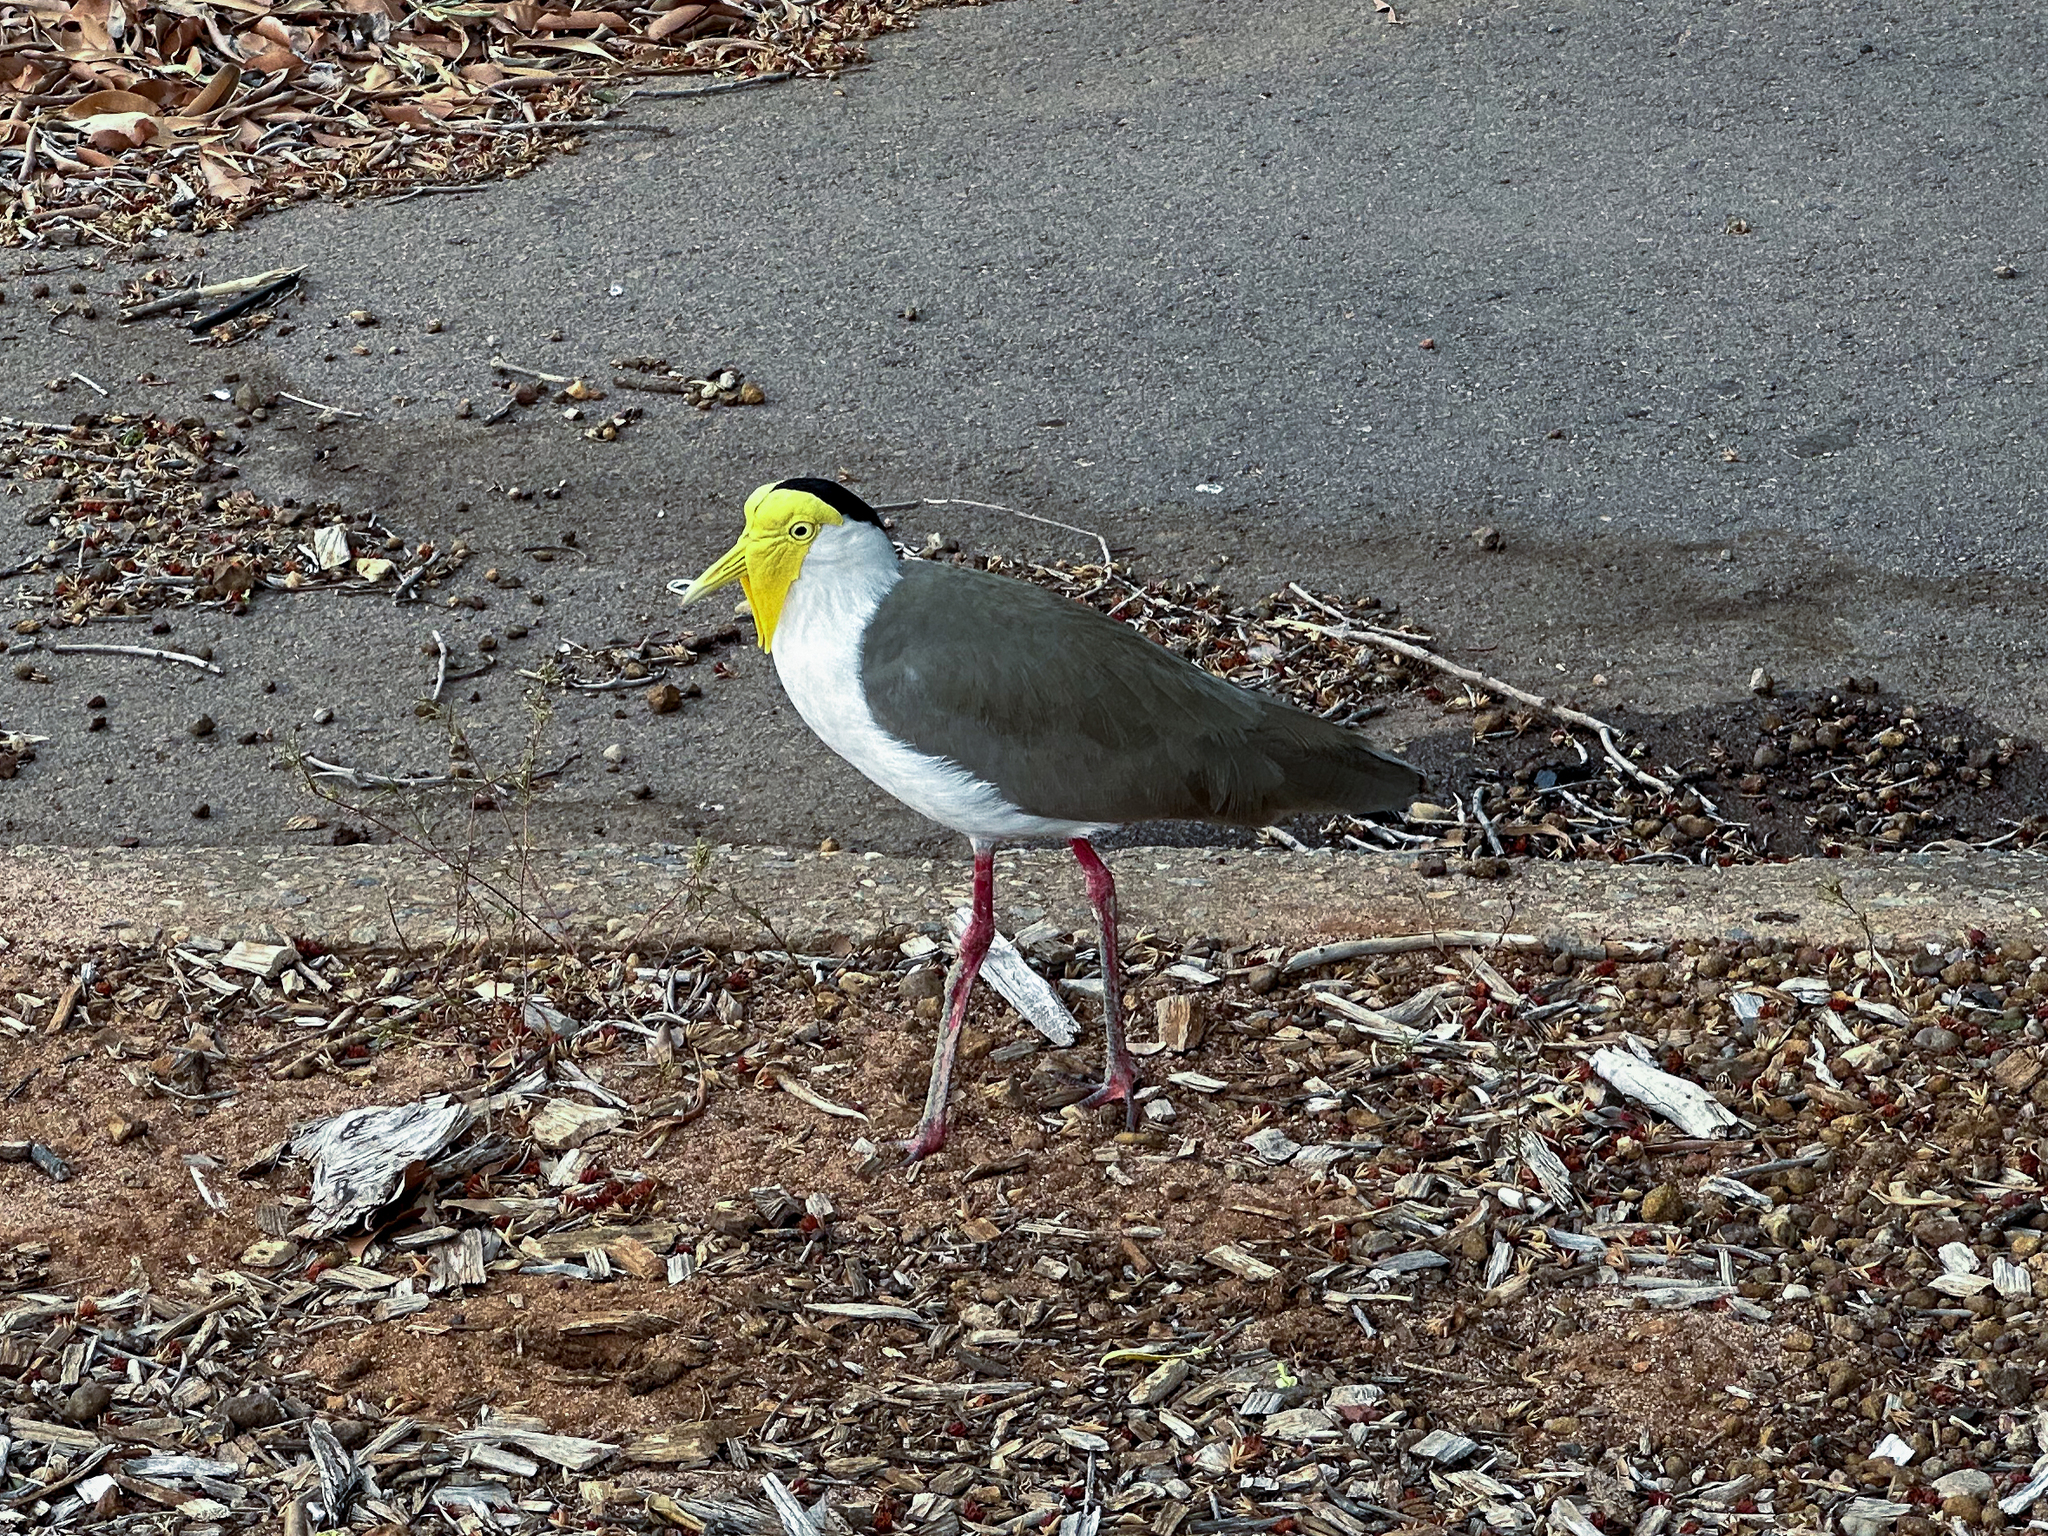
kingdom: Animalia
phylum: Chordata
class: Aves
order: Charadriiformes
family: Charadriidae
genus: Vanellus
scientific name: Vanellus miles
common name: Masked lapwing
